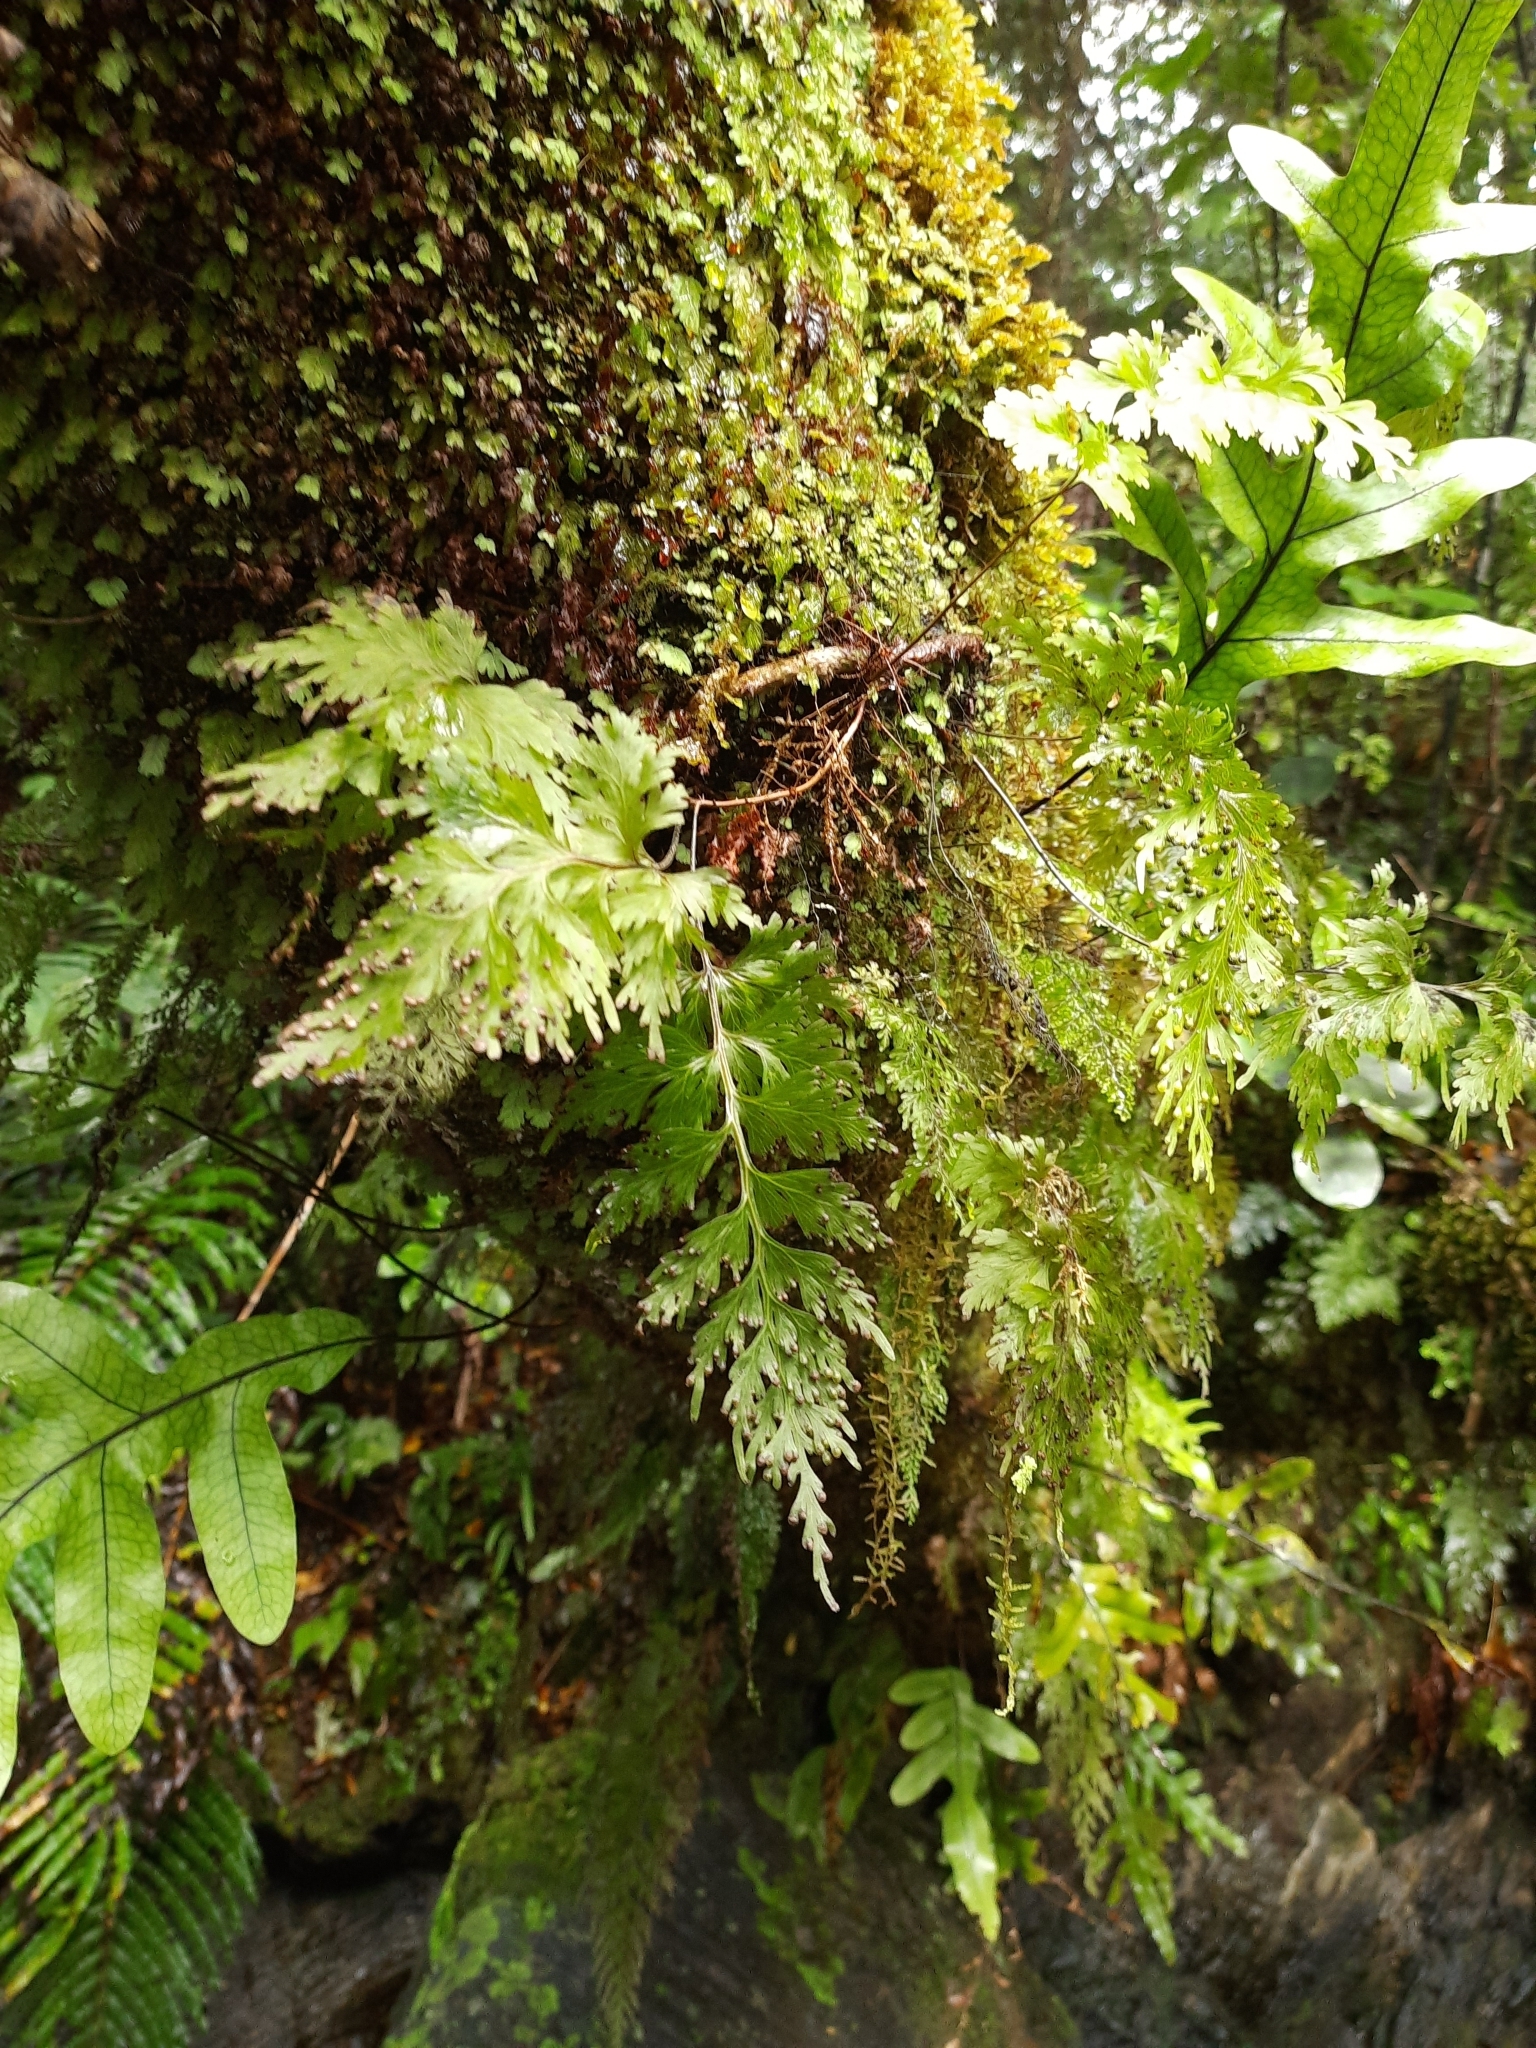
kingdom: Plantae
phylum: Tracheophyta
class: Polypodiopsida
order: Hymenophyllales
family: Hymenophyllaceae
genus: Hymenophyllum
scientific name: Hymenophyllum dilatatum
